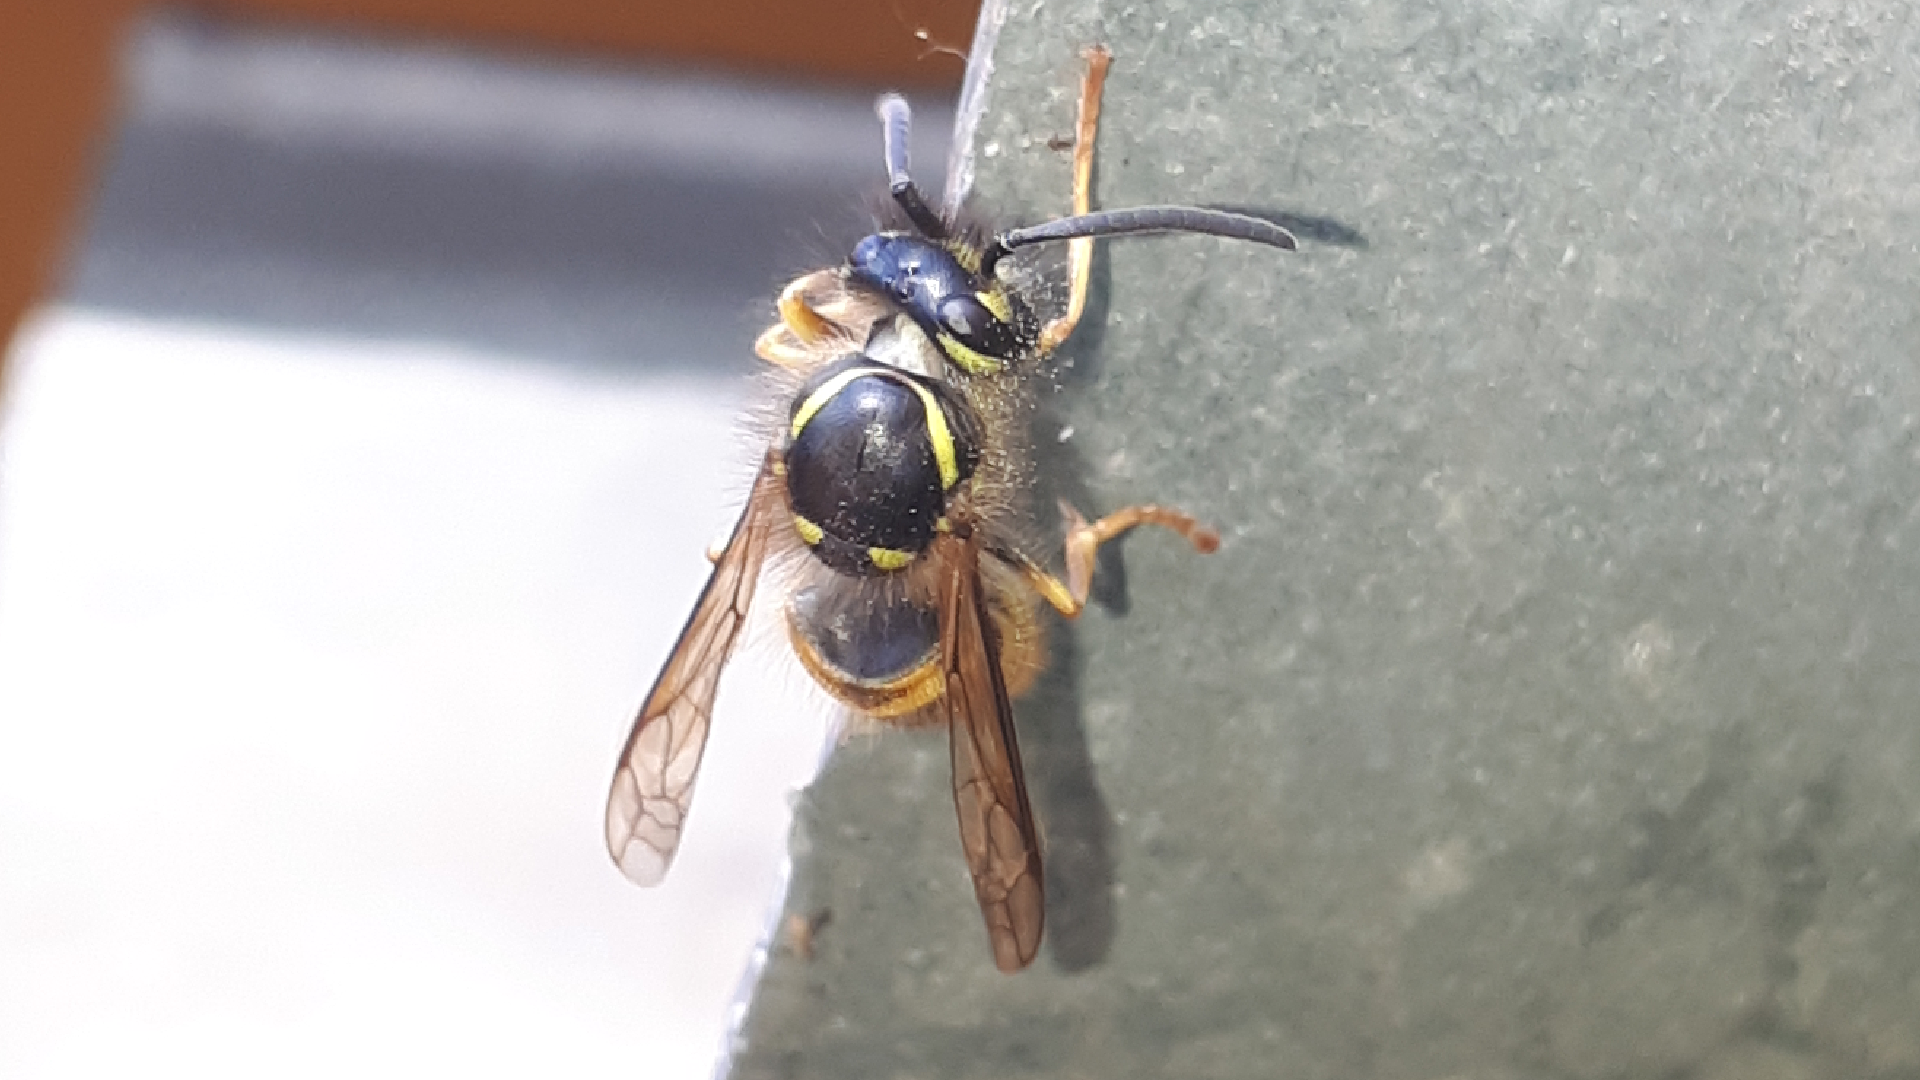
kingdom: Animalia
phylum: Arthropoda
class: Insecta
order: Hymenoptera
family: Vespidae
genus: Vespula
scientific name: Vespula vulgaris
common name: Common wasp
